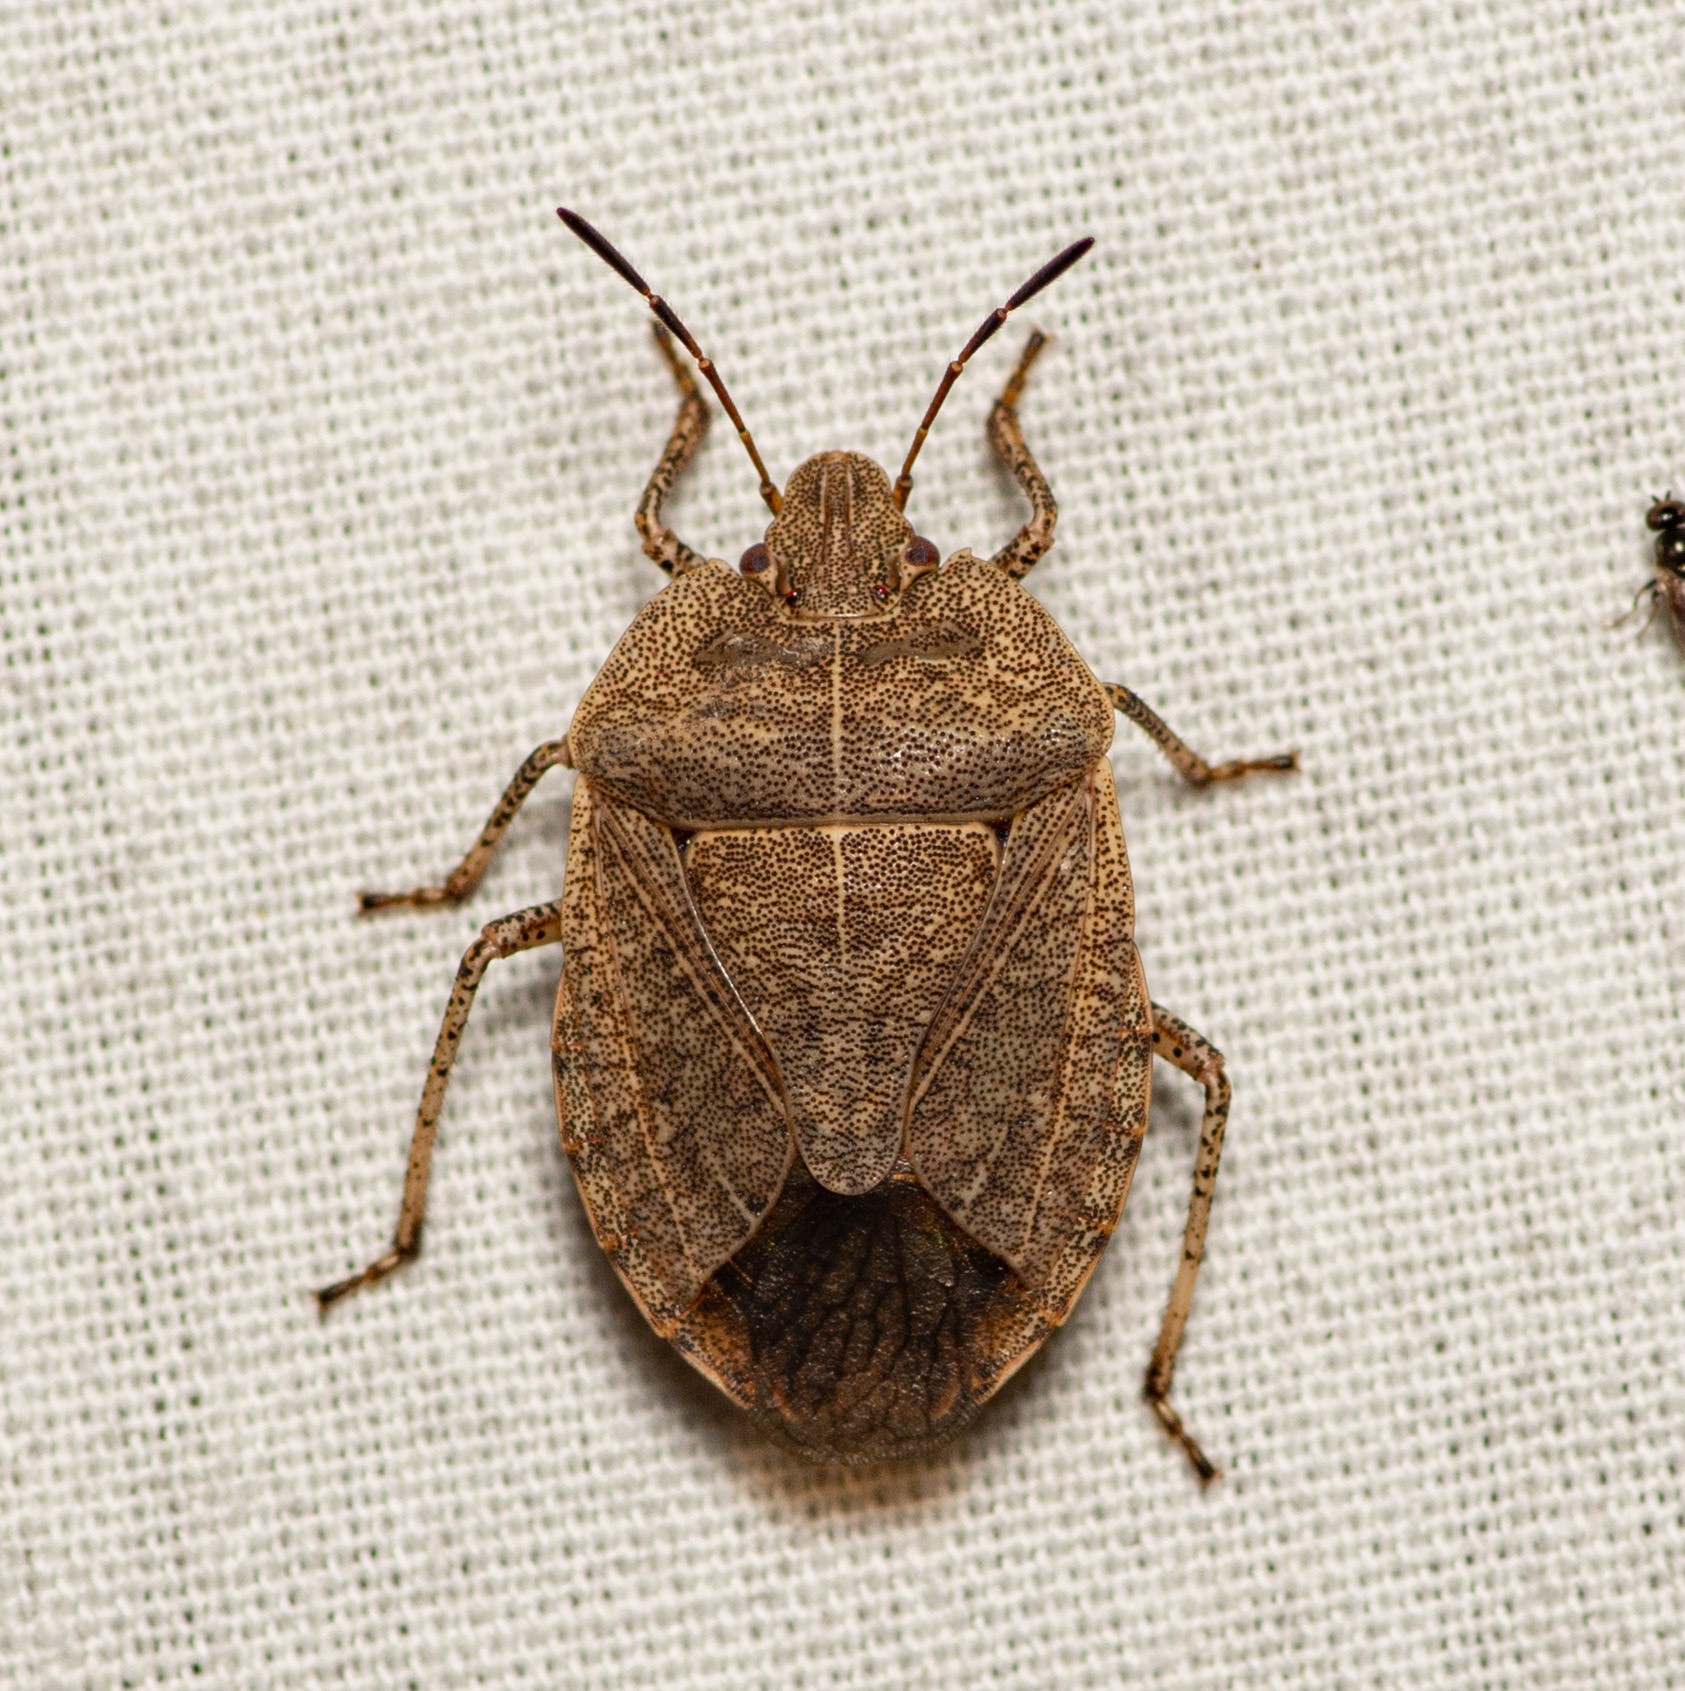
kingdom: Animalia
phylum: Arthropoda
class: Insecta
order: Hemiptera
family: Pentatomidae
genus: Menecles
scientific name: Menecles insertus
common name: Elf shoe stink bug
